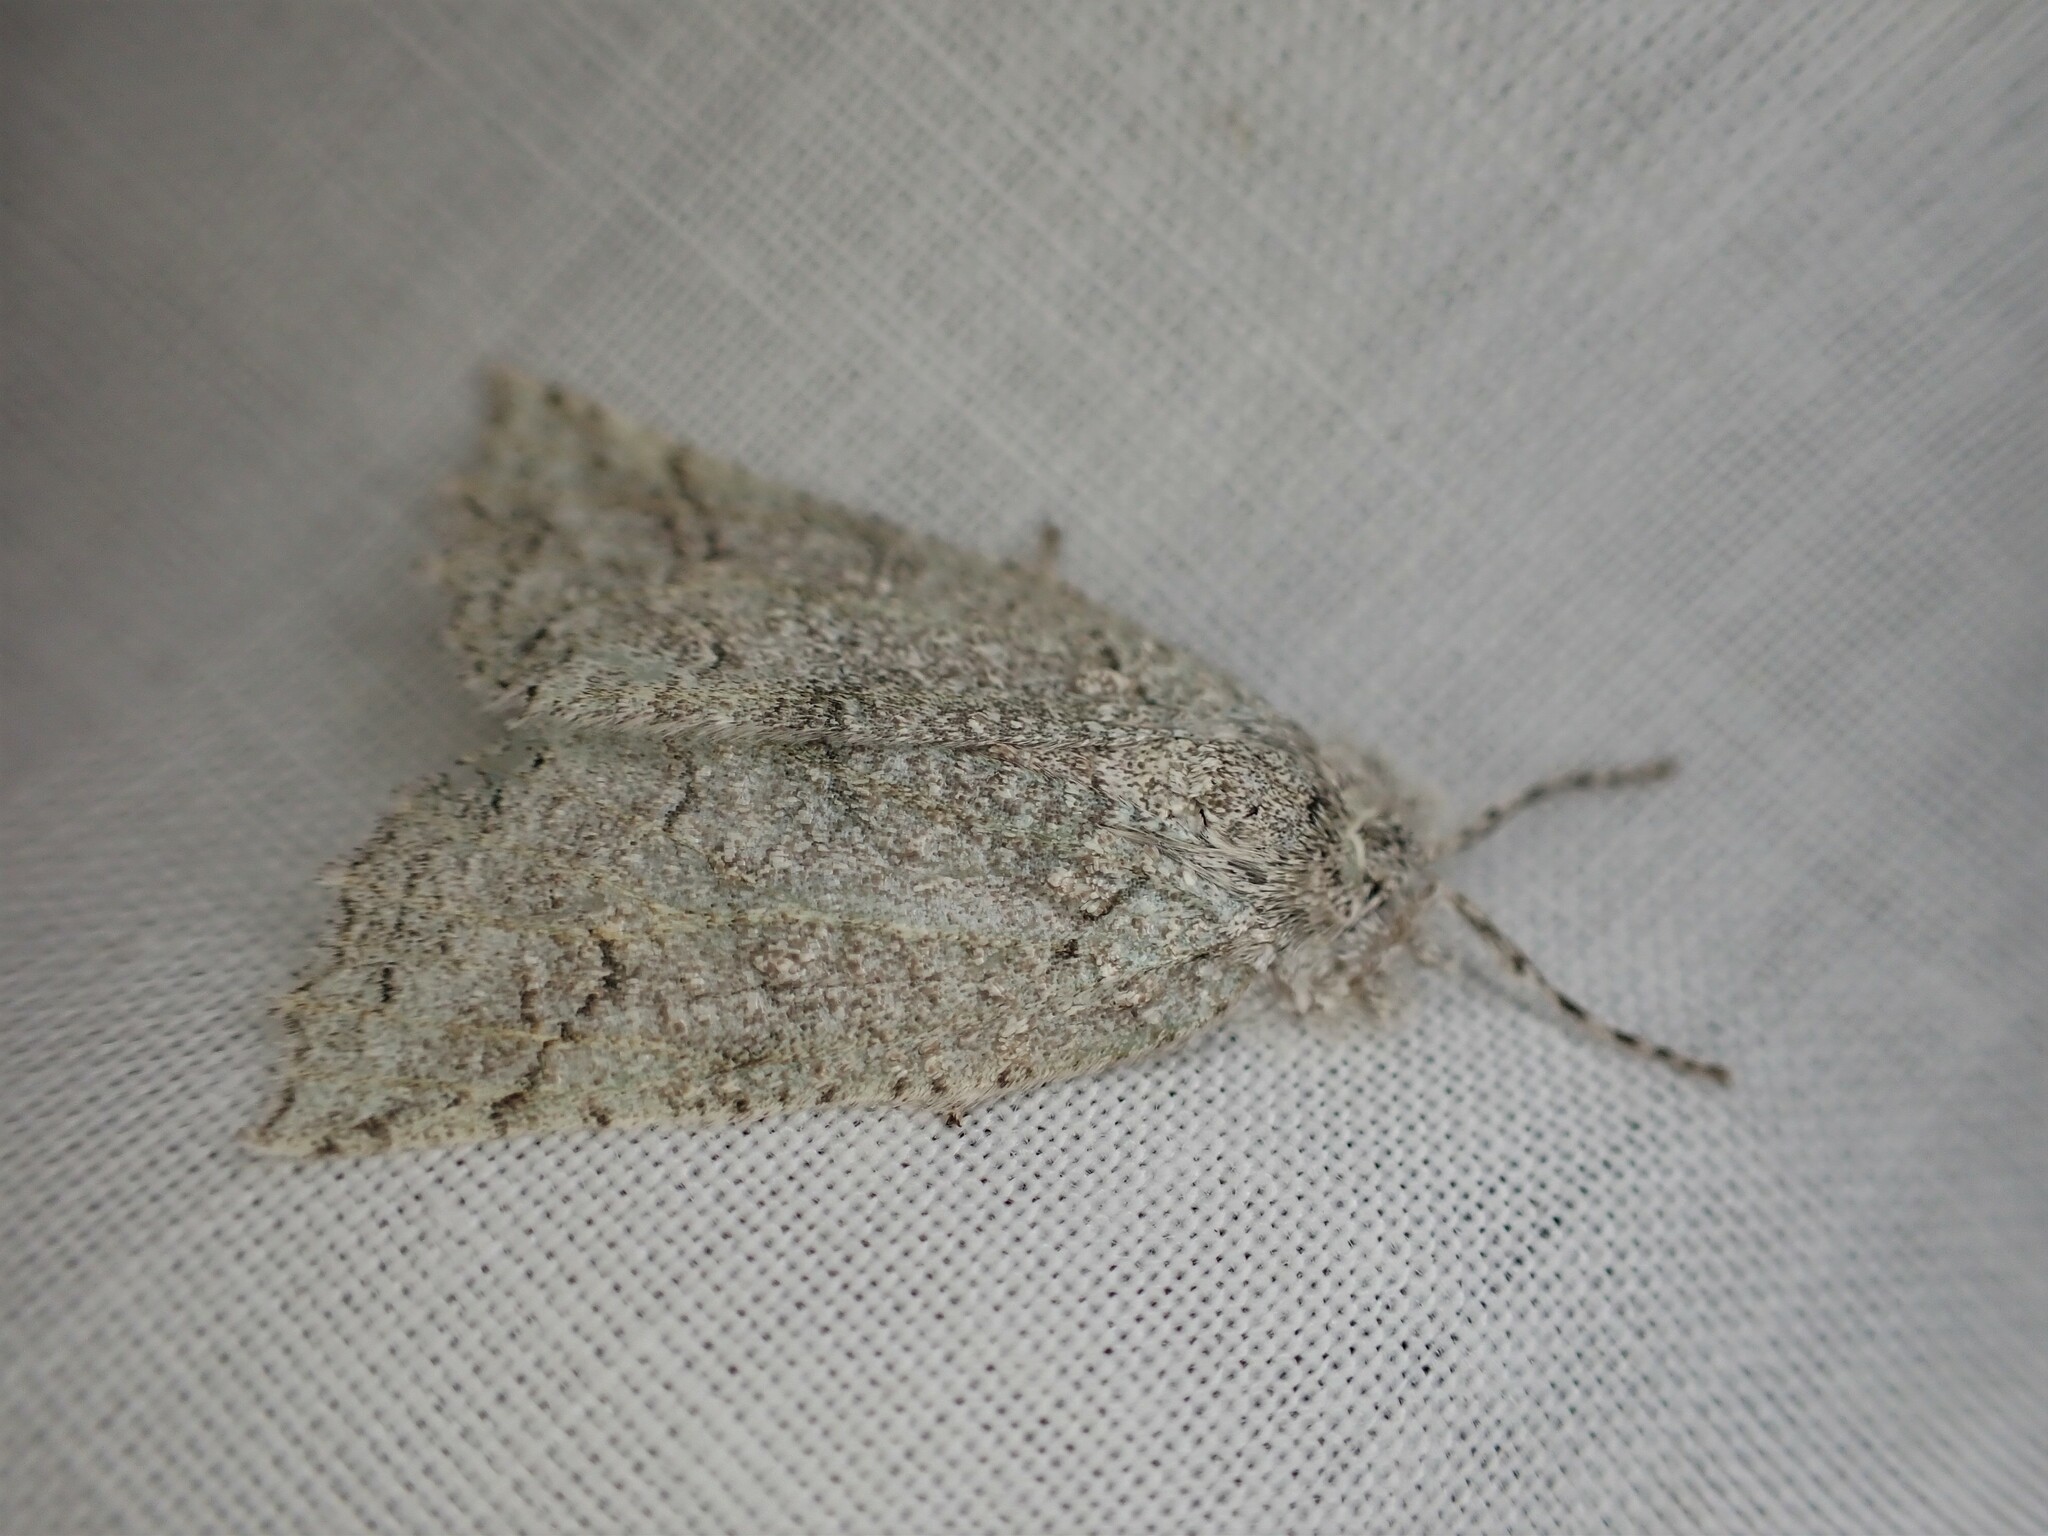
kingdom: Animalia
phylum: Arthropoda
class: Insecta
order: Lepidoptera
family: Geometridae
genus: Declana
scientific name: Declana floccosa
